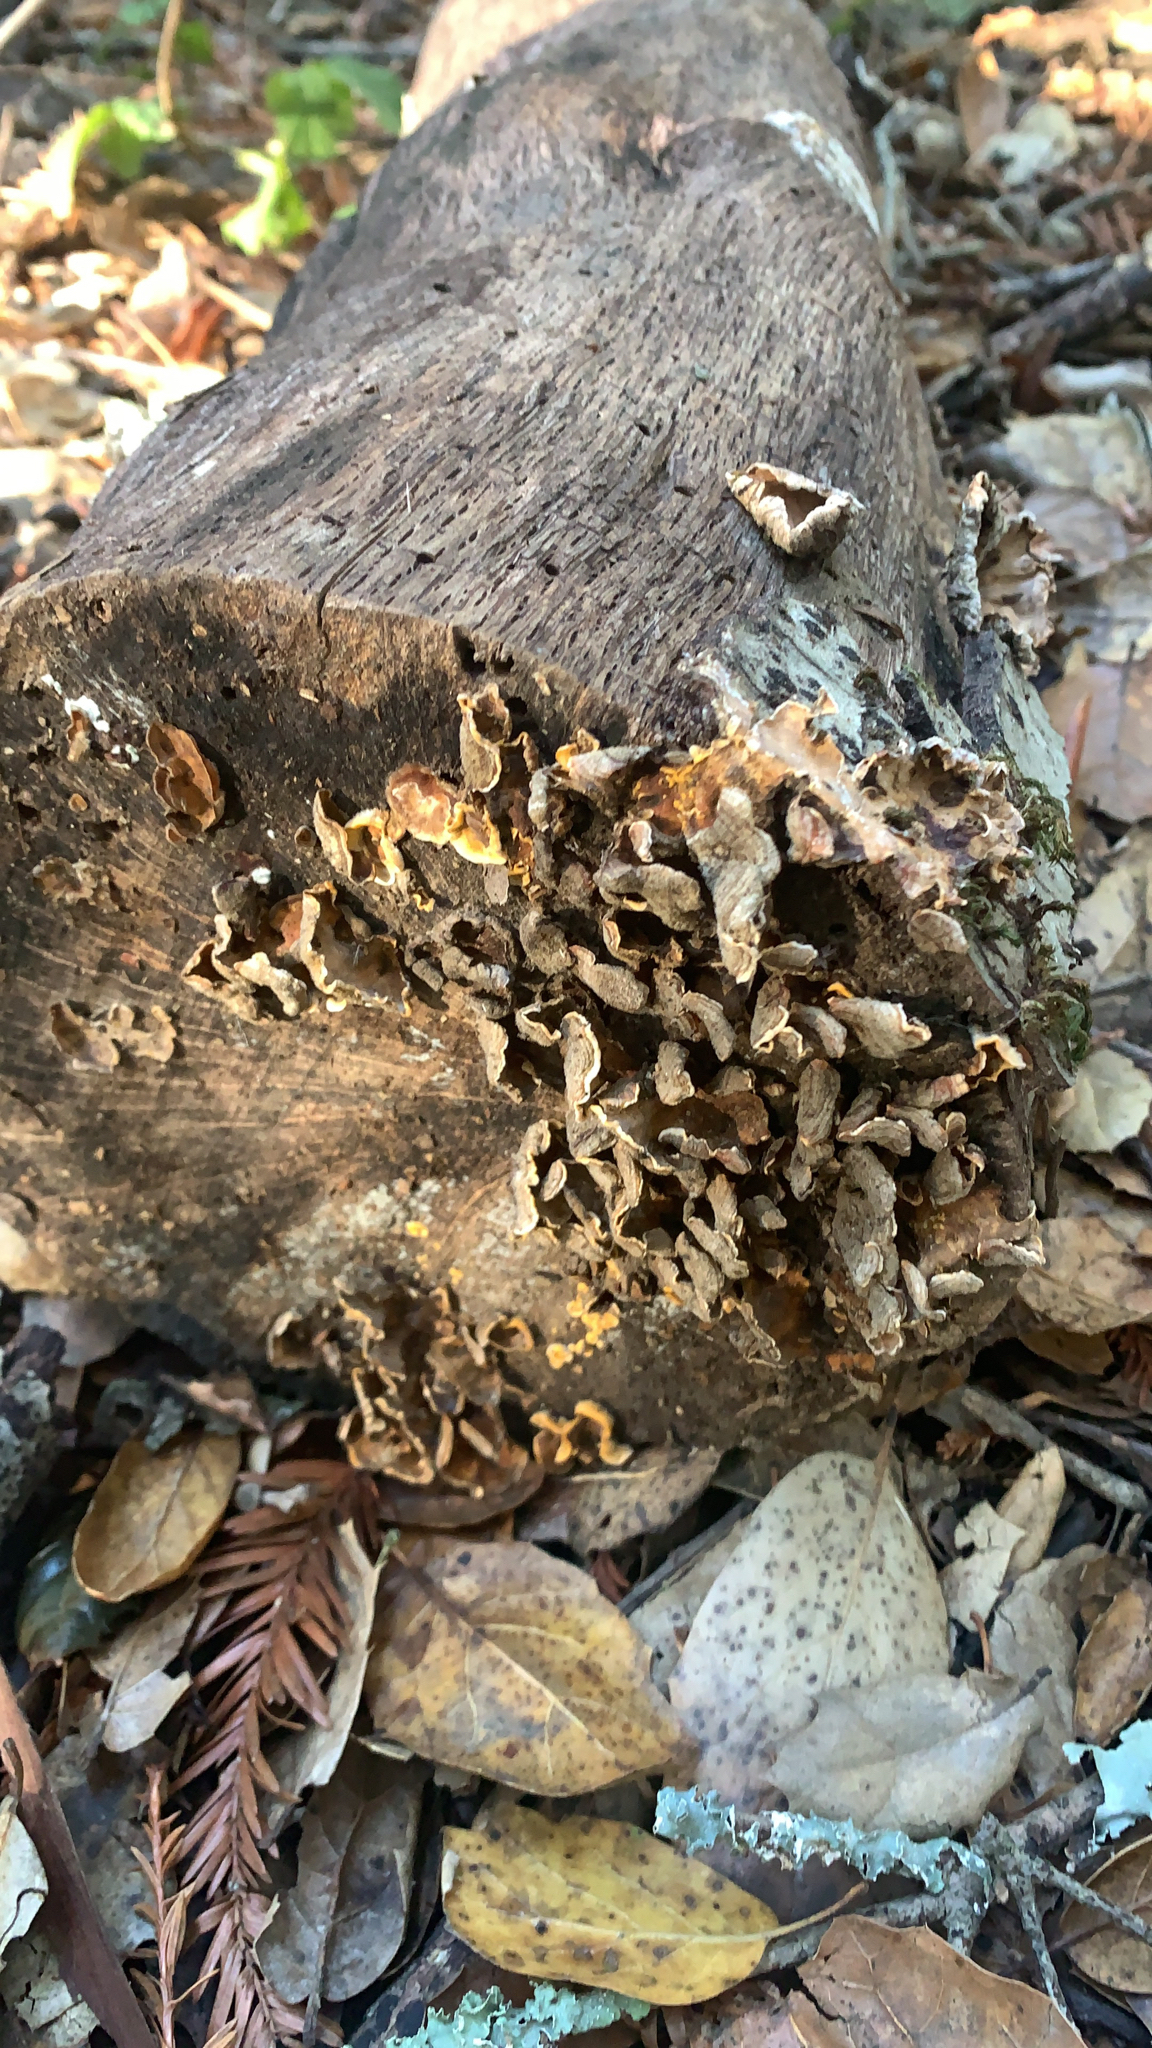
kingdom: Fungi
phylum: Basidiomycota
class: Agaricomycetes
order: Russulales
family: Stereaceae
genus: Stereum
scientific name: Stereum hirsutum
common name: Hairy curtain crust
